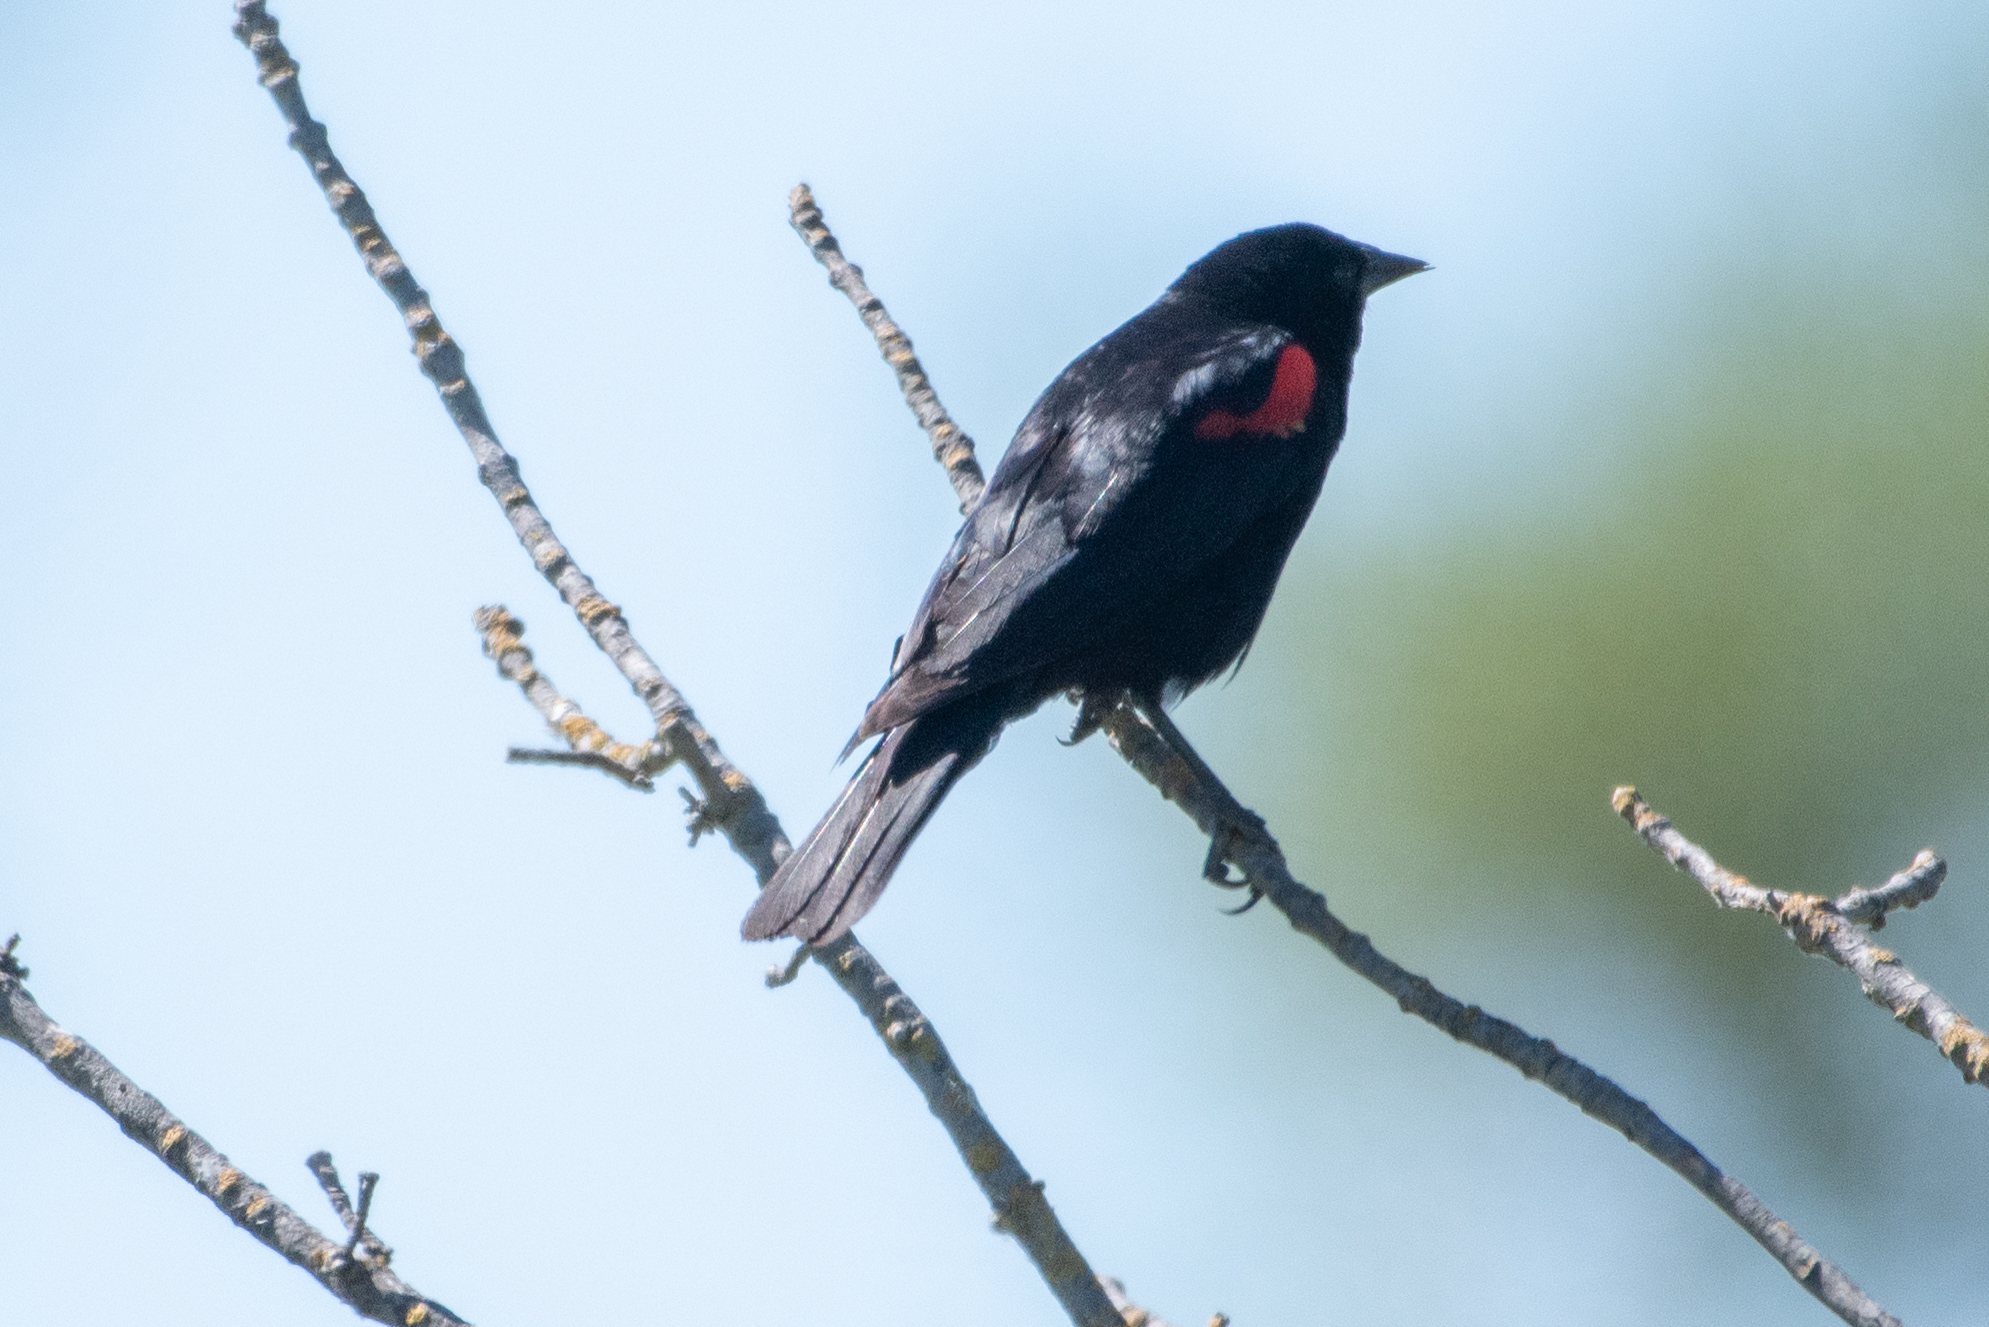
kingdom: Animalia
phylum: Chordata
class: Aves
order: Passeriformes
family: Icteridae
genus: Agelaius
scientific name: Agelaius phoeniceus
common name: Red-winged blackbird
